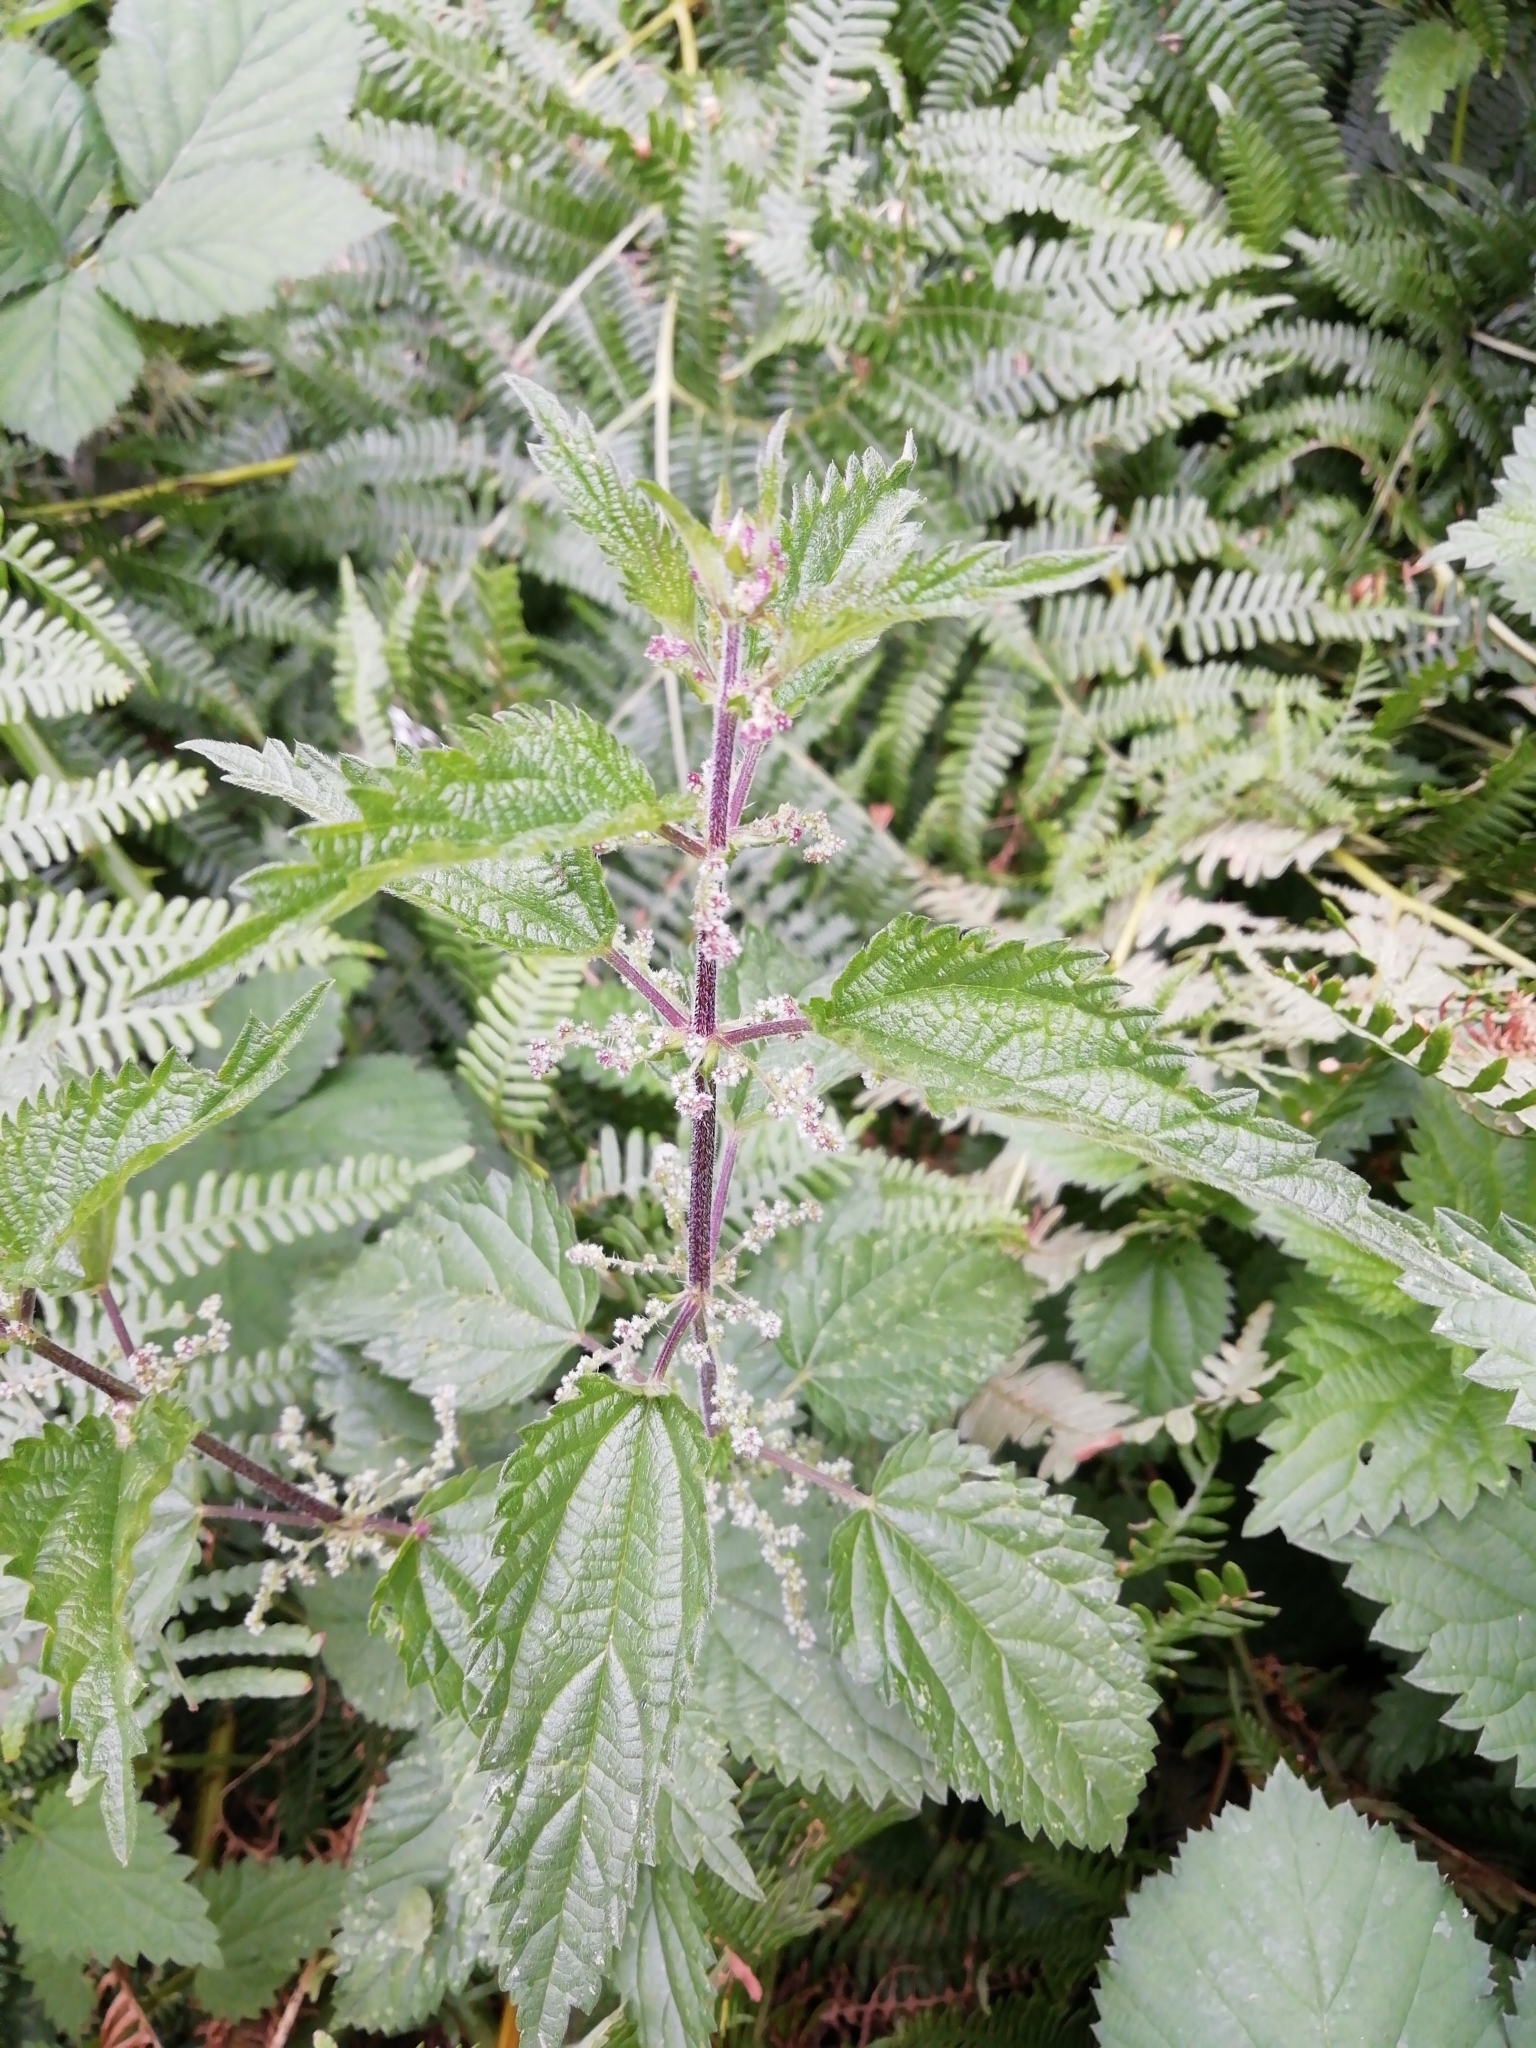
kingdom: Plantae
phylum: Tracheophyta
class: Magnoliopsida
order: Rosales
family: Urticaceae
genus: Urtica
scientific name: Urtica dioica
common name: Common nettle
